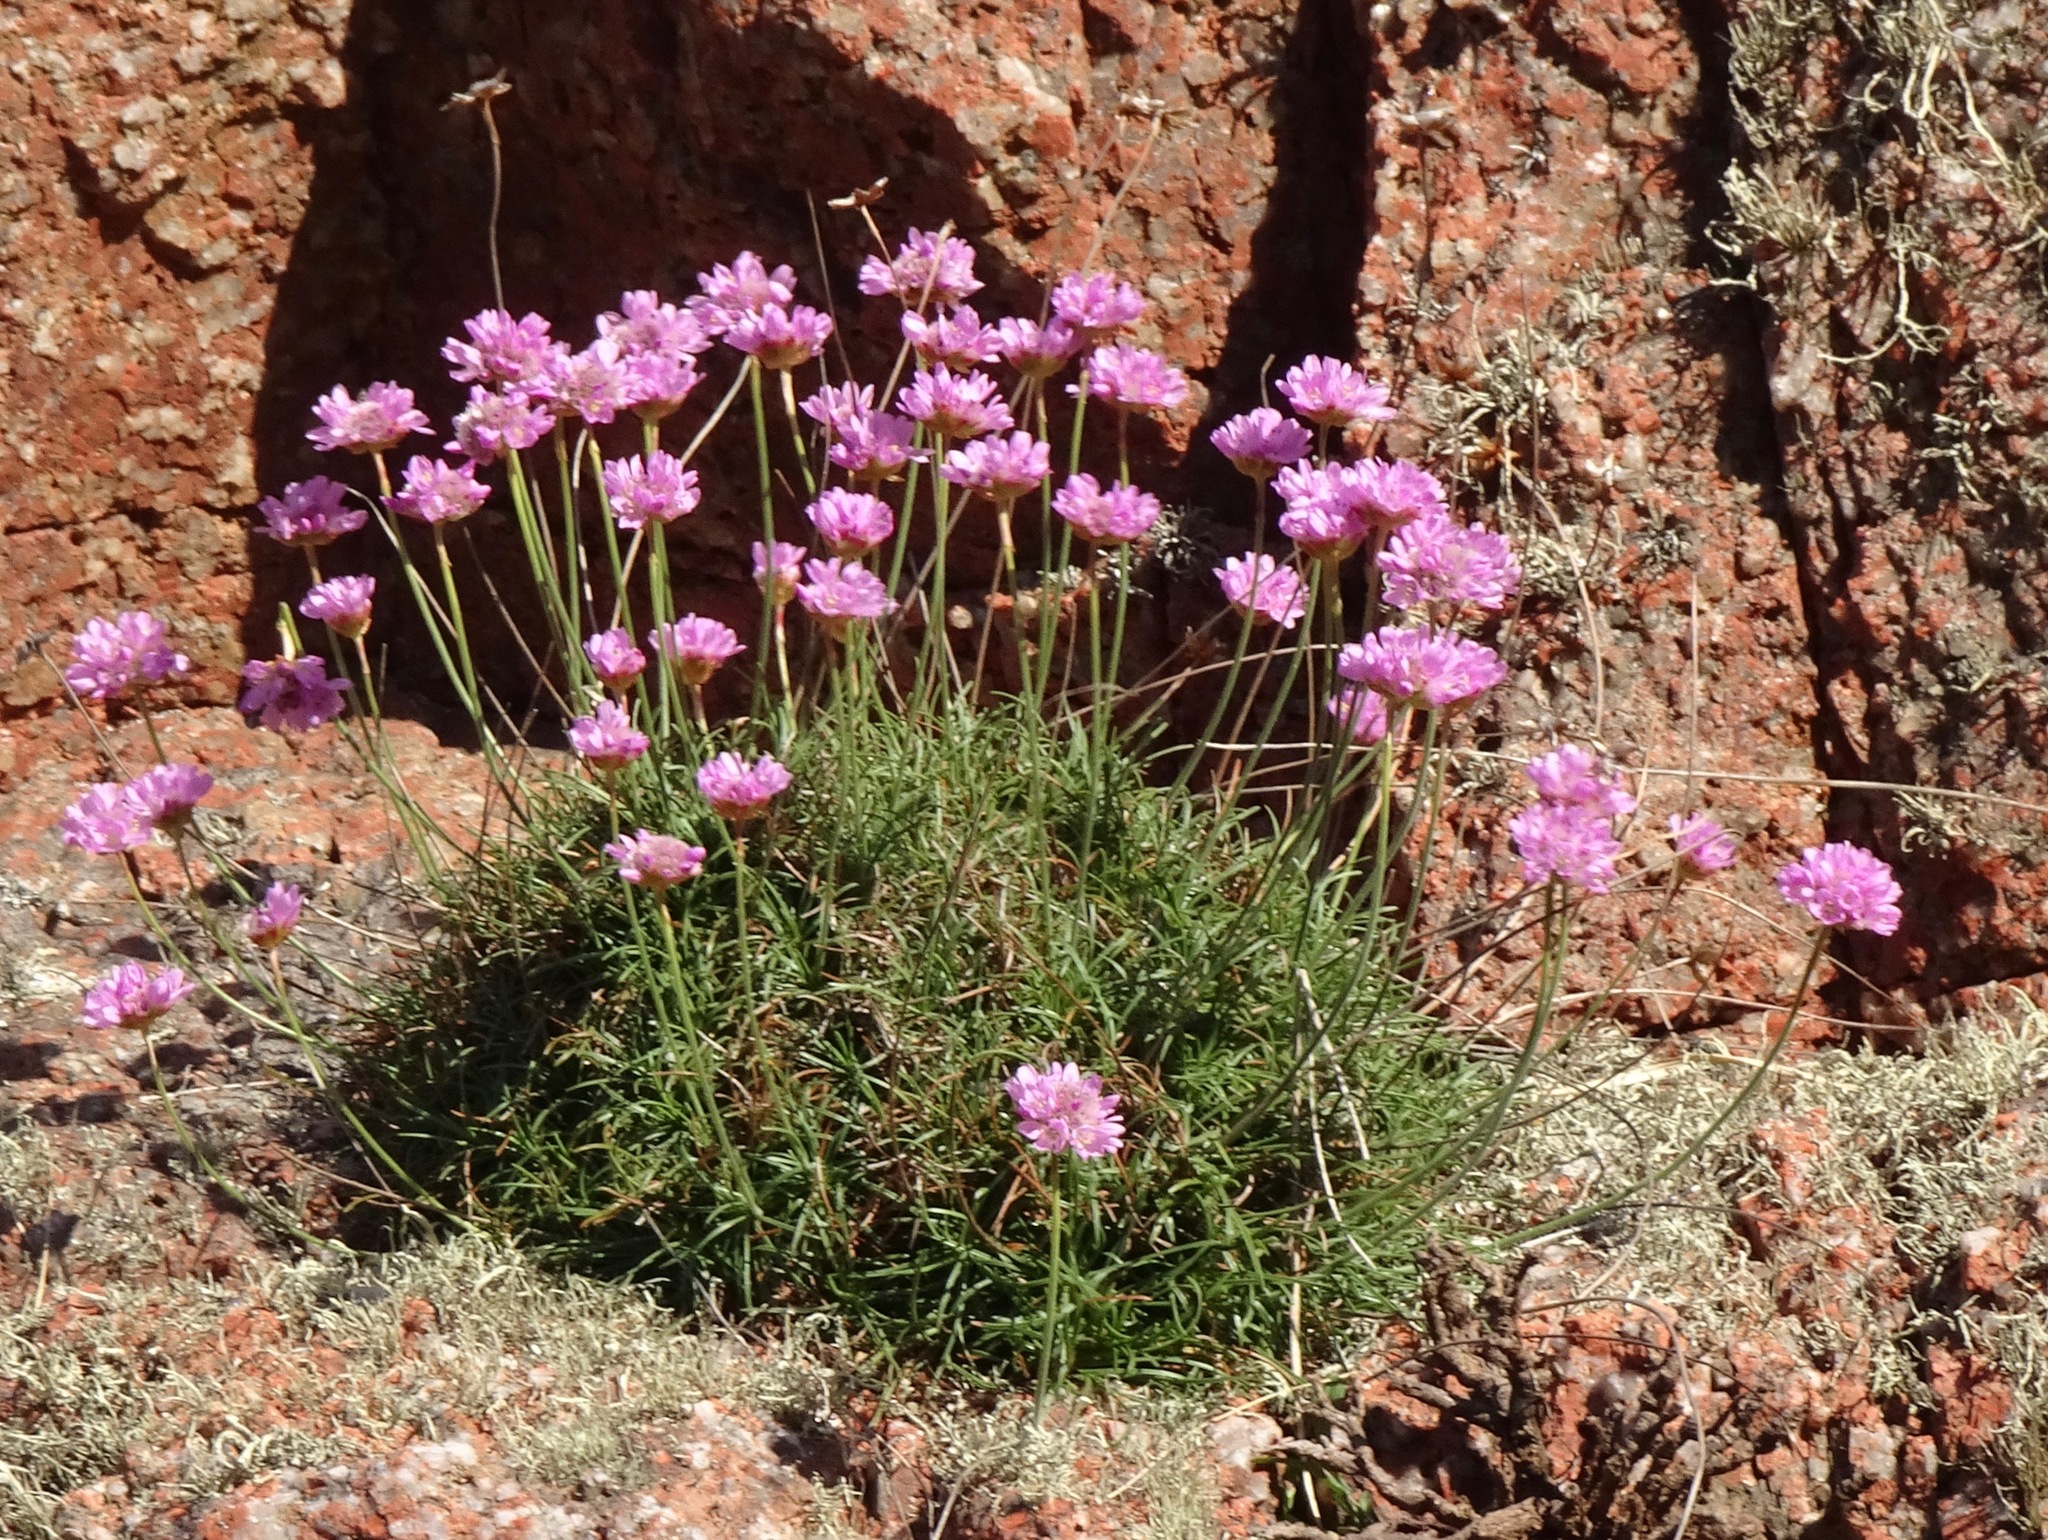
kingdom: Plantae
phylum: Tracheophyta
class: Magnoliopsida
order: Caryophyllales
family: Plumbaginaceae
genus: Armeria
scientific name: Armeria maritima
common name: Thrift
